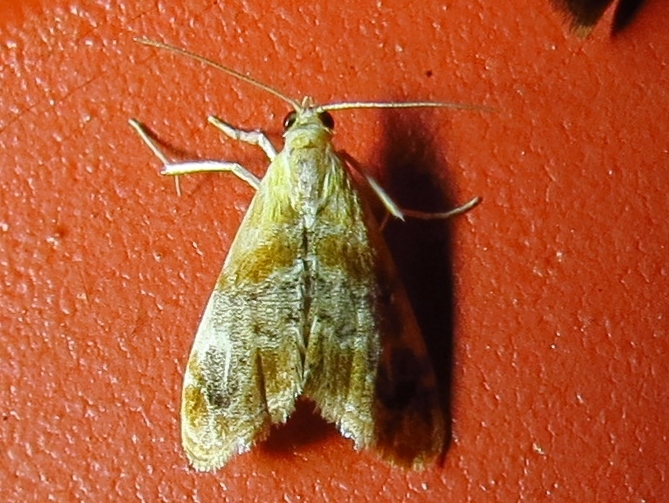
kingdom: Animalia
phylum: Arthropoda
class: Insecta
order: Lepidoptera
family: Crambidae
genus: Dicymolomia
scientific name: Dicymolomia julianalis
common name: Julia's dicymolomia moth
